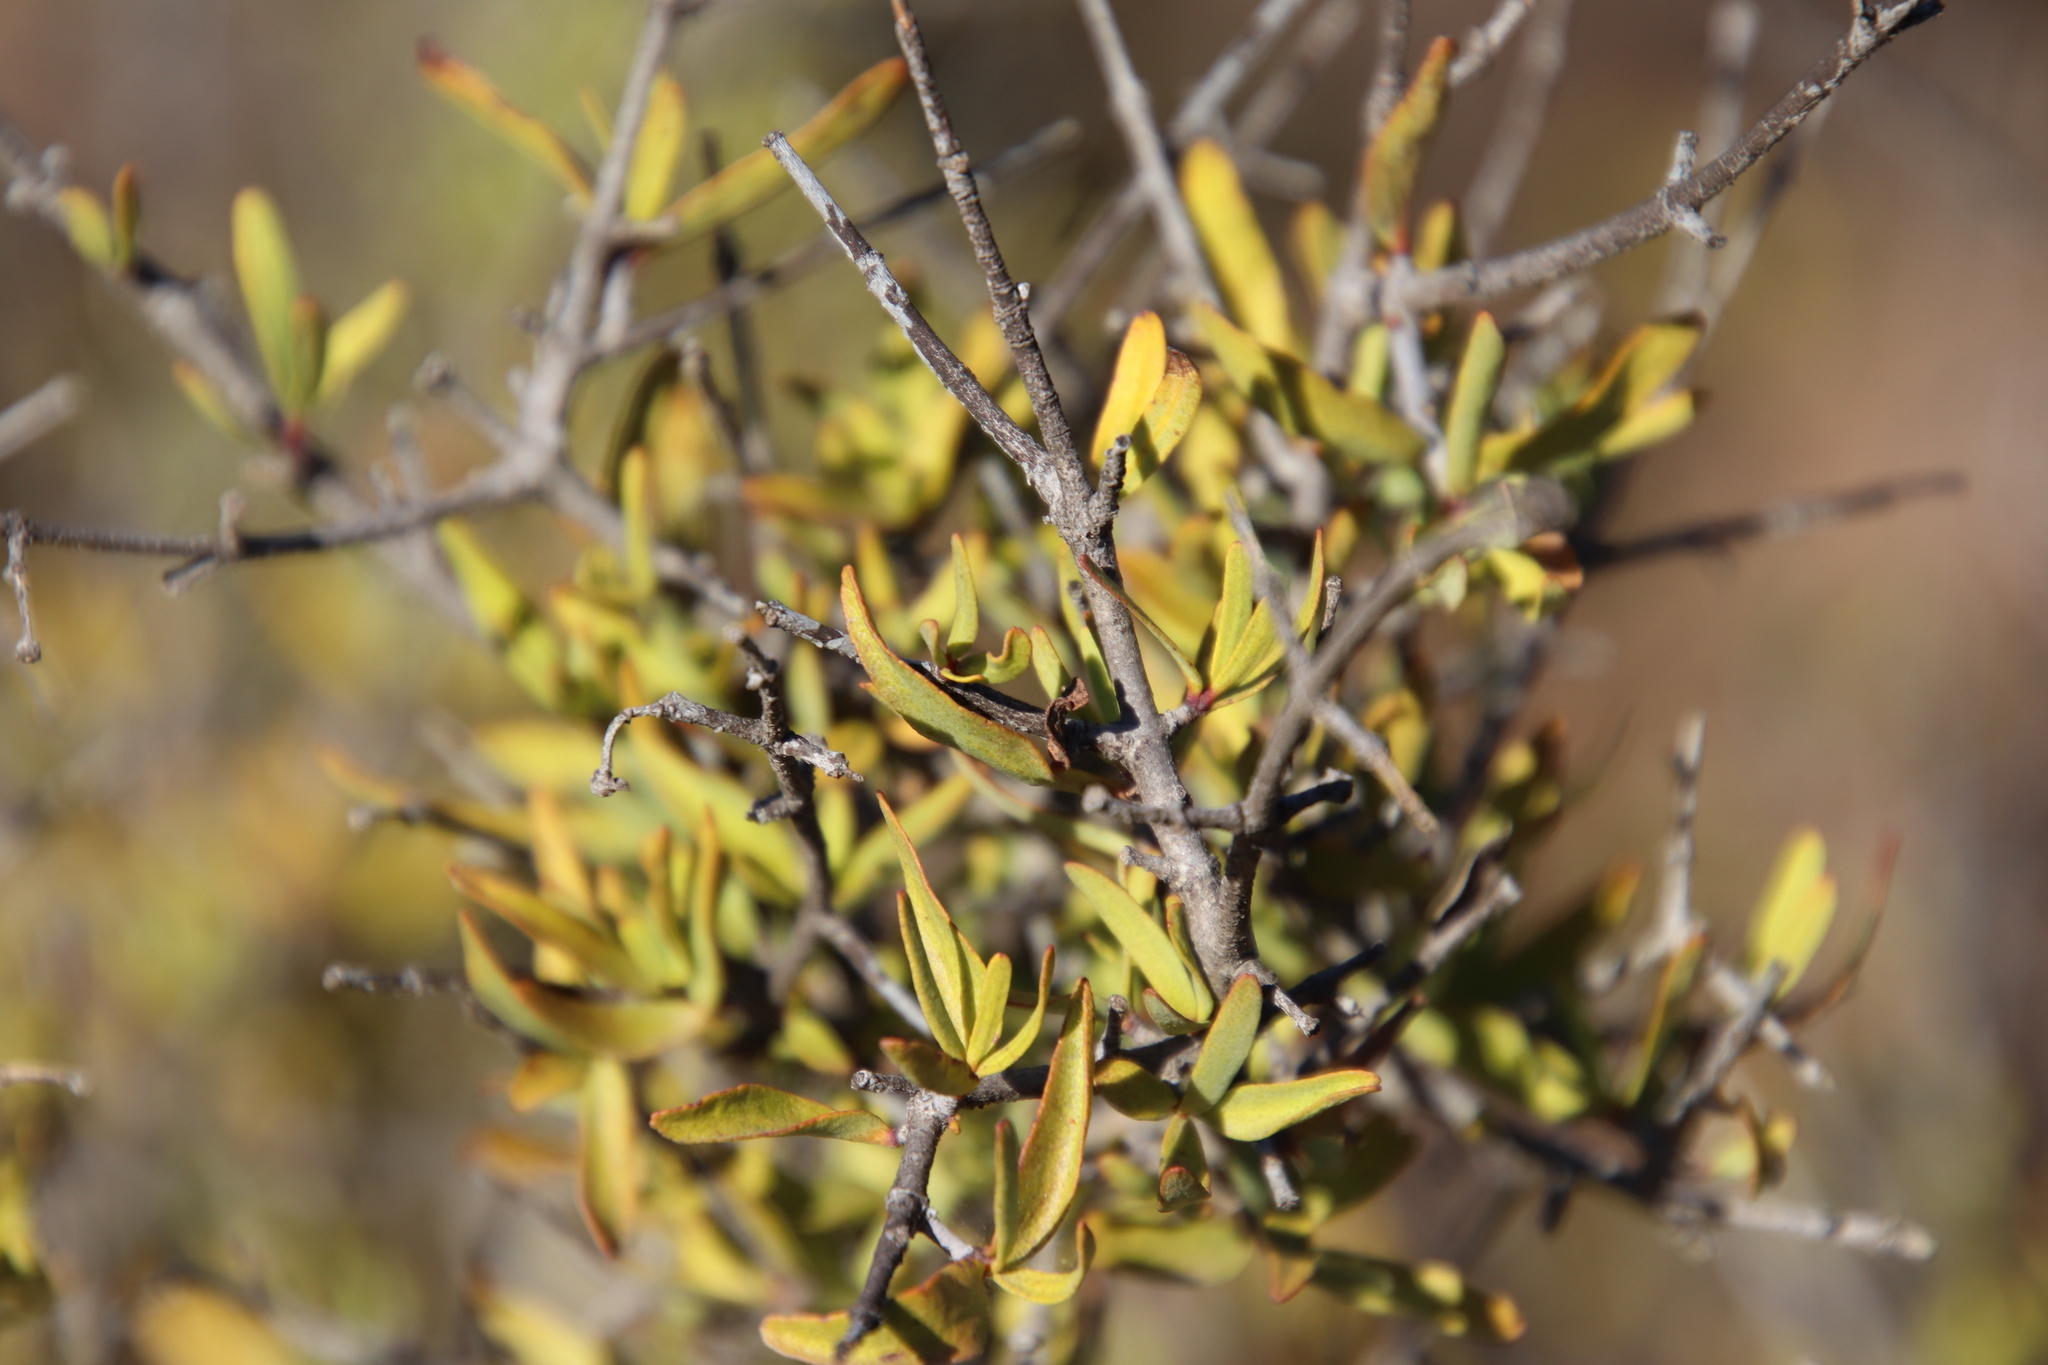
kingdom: Plantae
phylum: Tracheophyta
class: Magnoliopsida
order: Sapindales
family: Rutaceae
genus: Cneoridium
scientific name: Cneoridium dumosum
